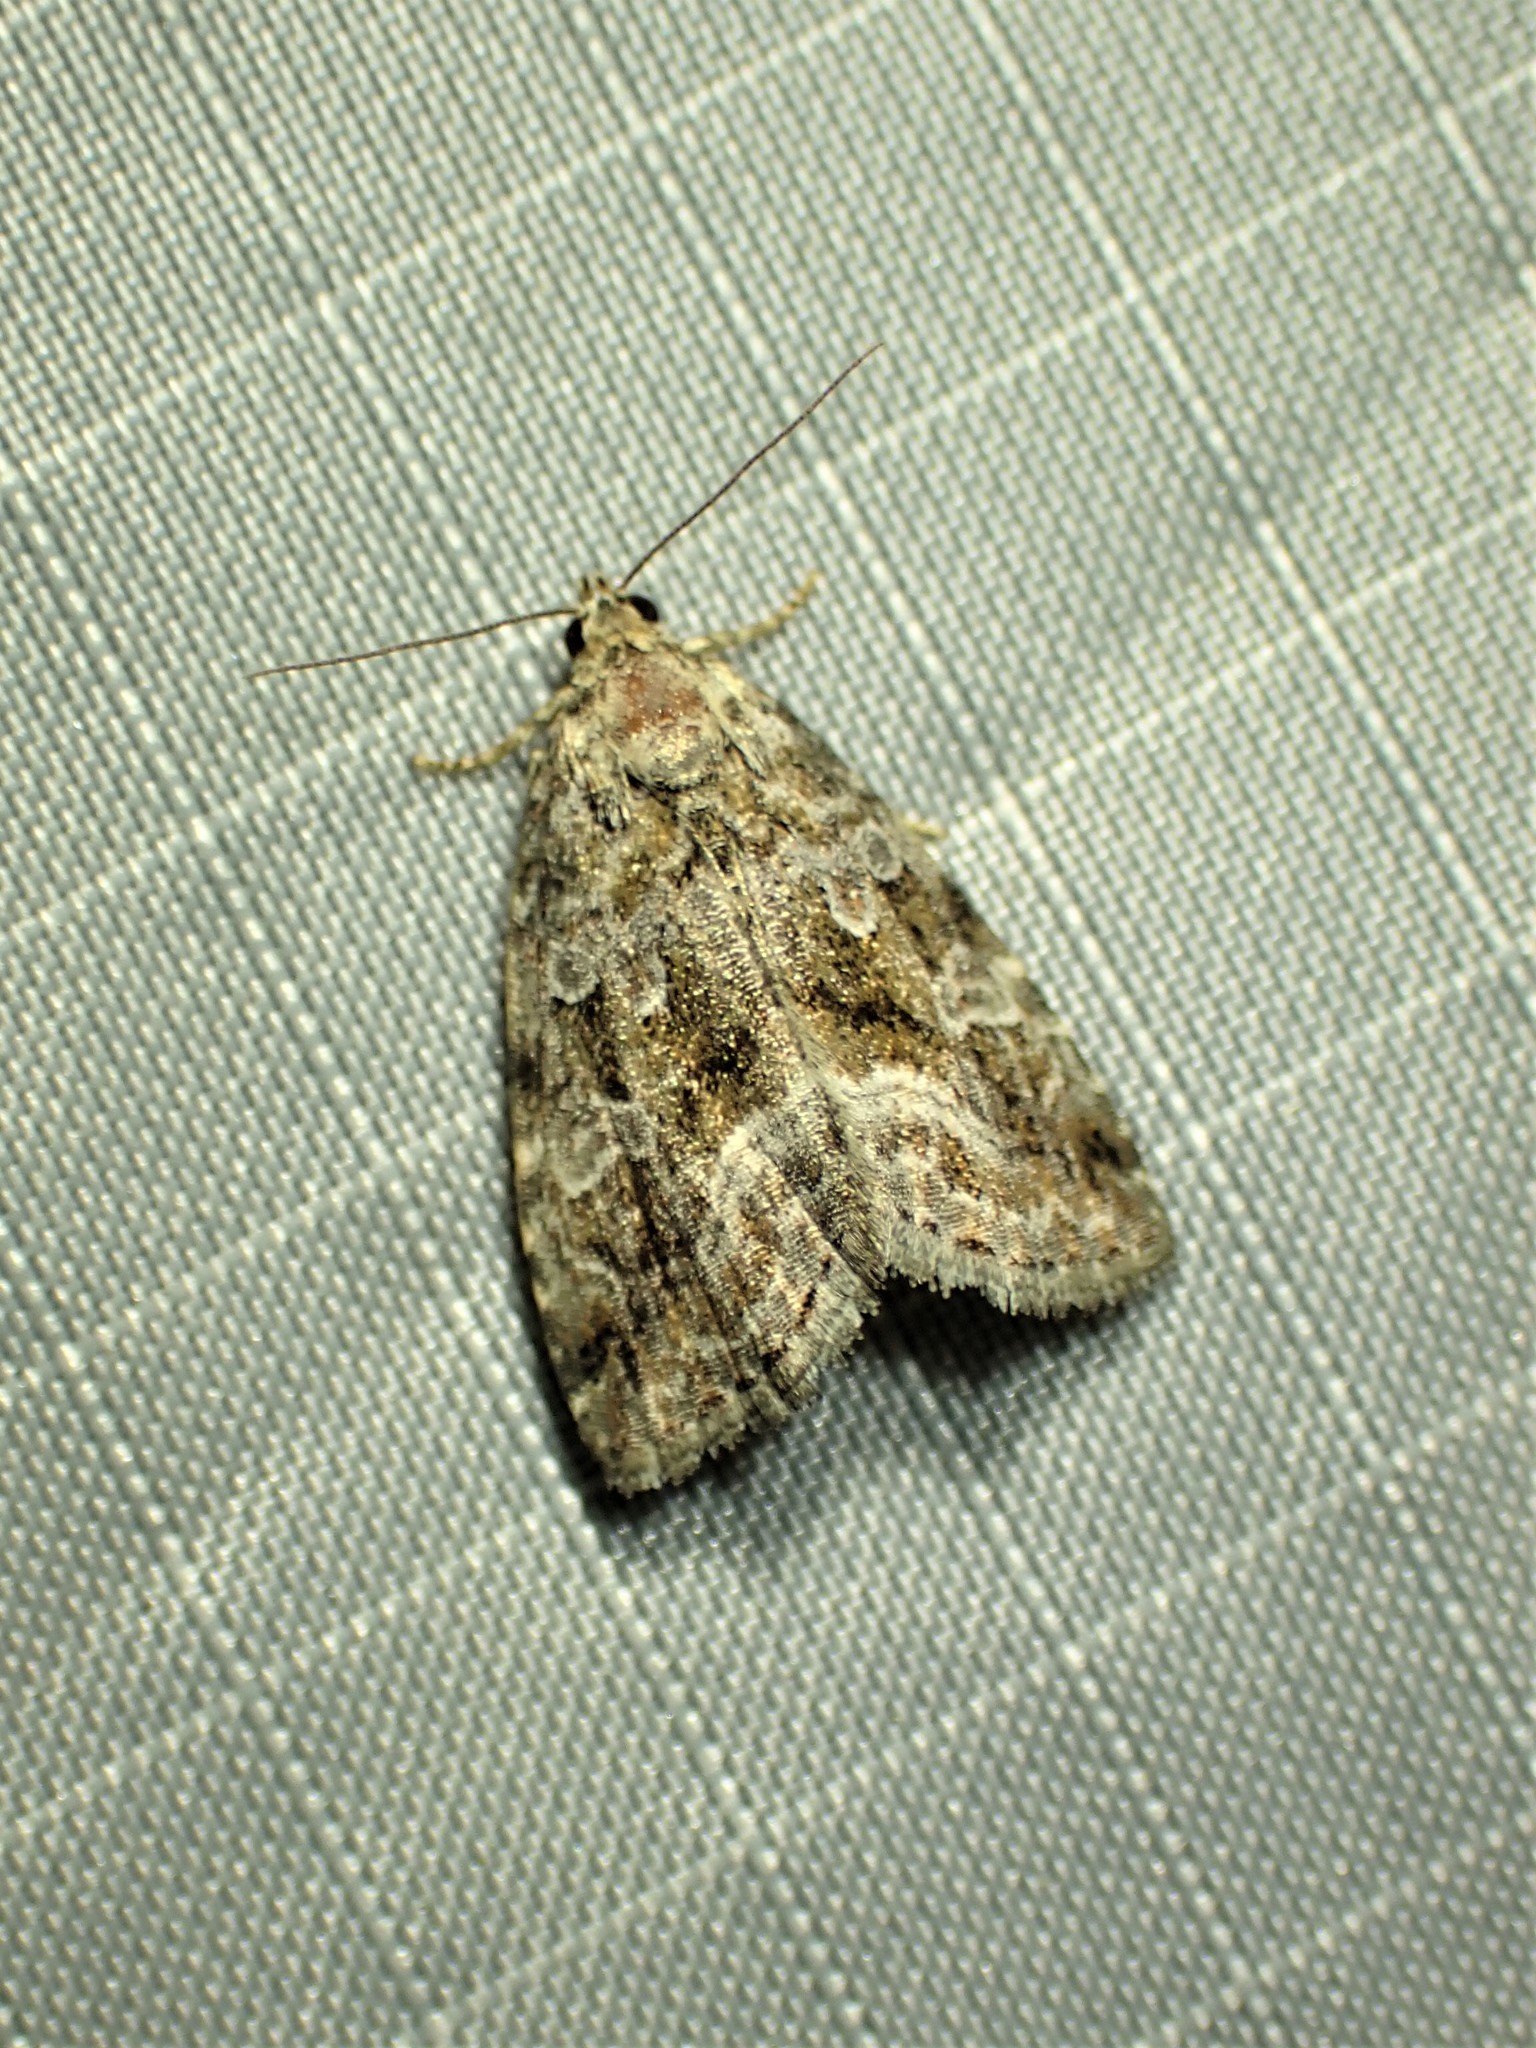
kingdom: Animalia
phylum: Arthropoda
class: Insecta
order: Lepidoptera
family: Noctuidae
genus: Protodeltote
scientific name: Protodeltote muscosula
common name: Large mossy glyph
